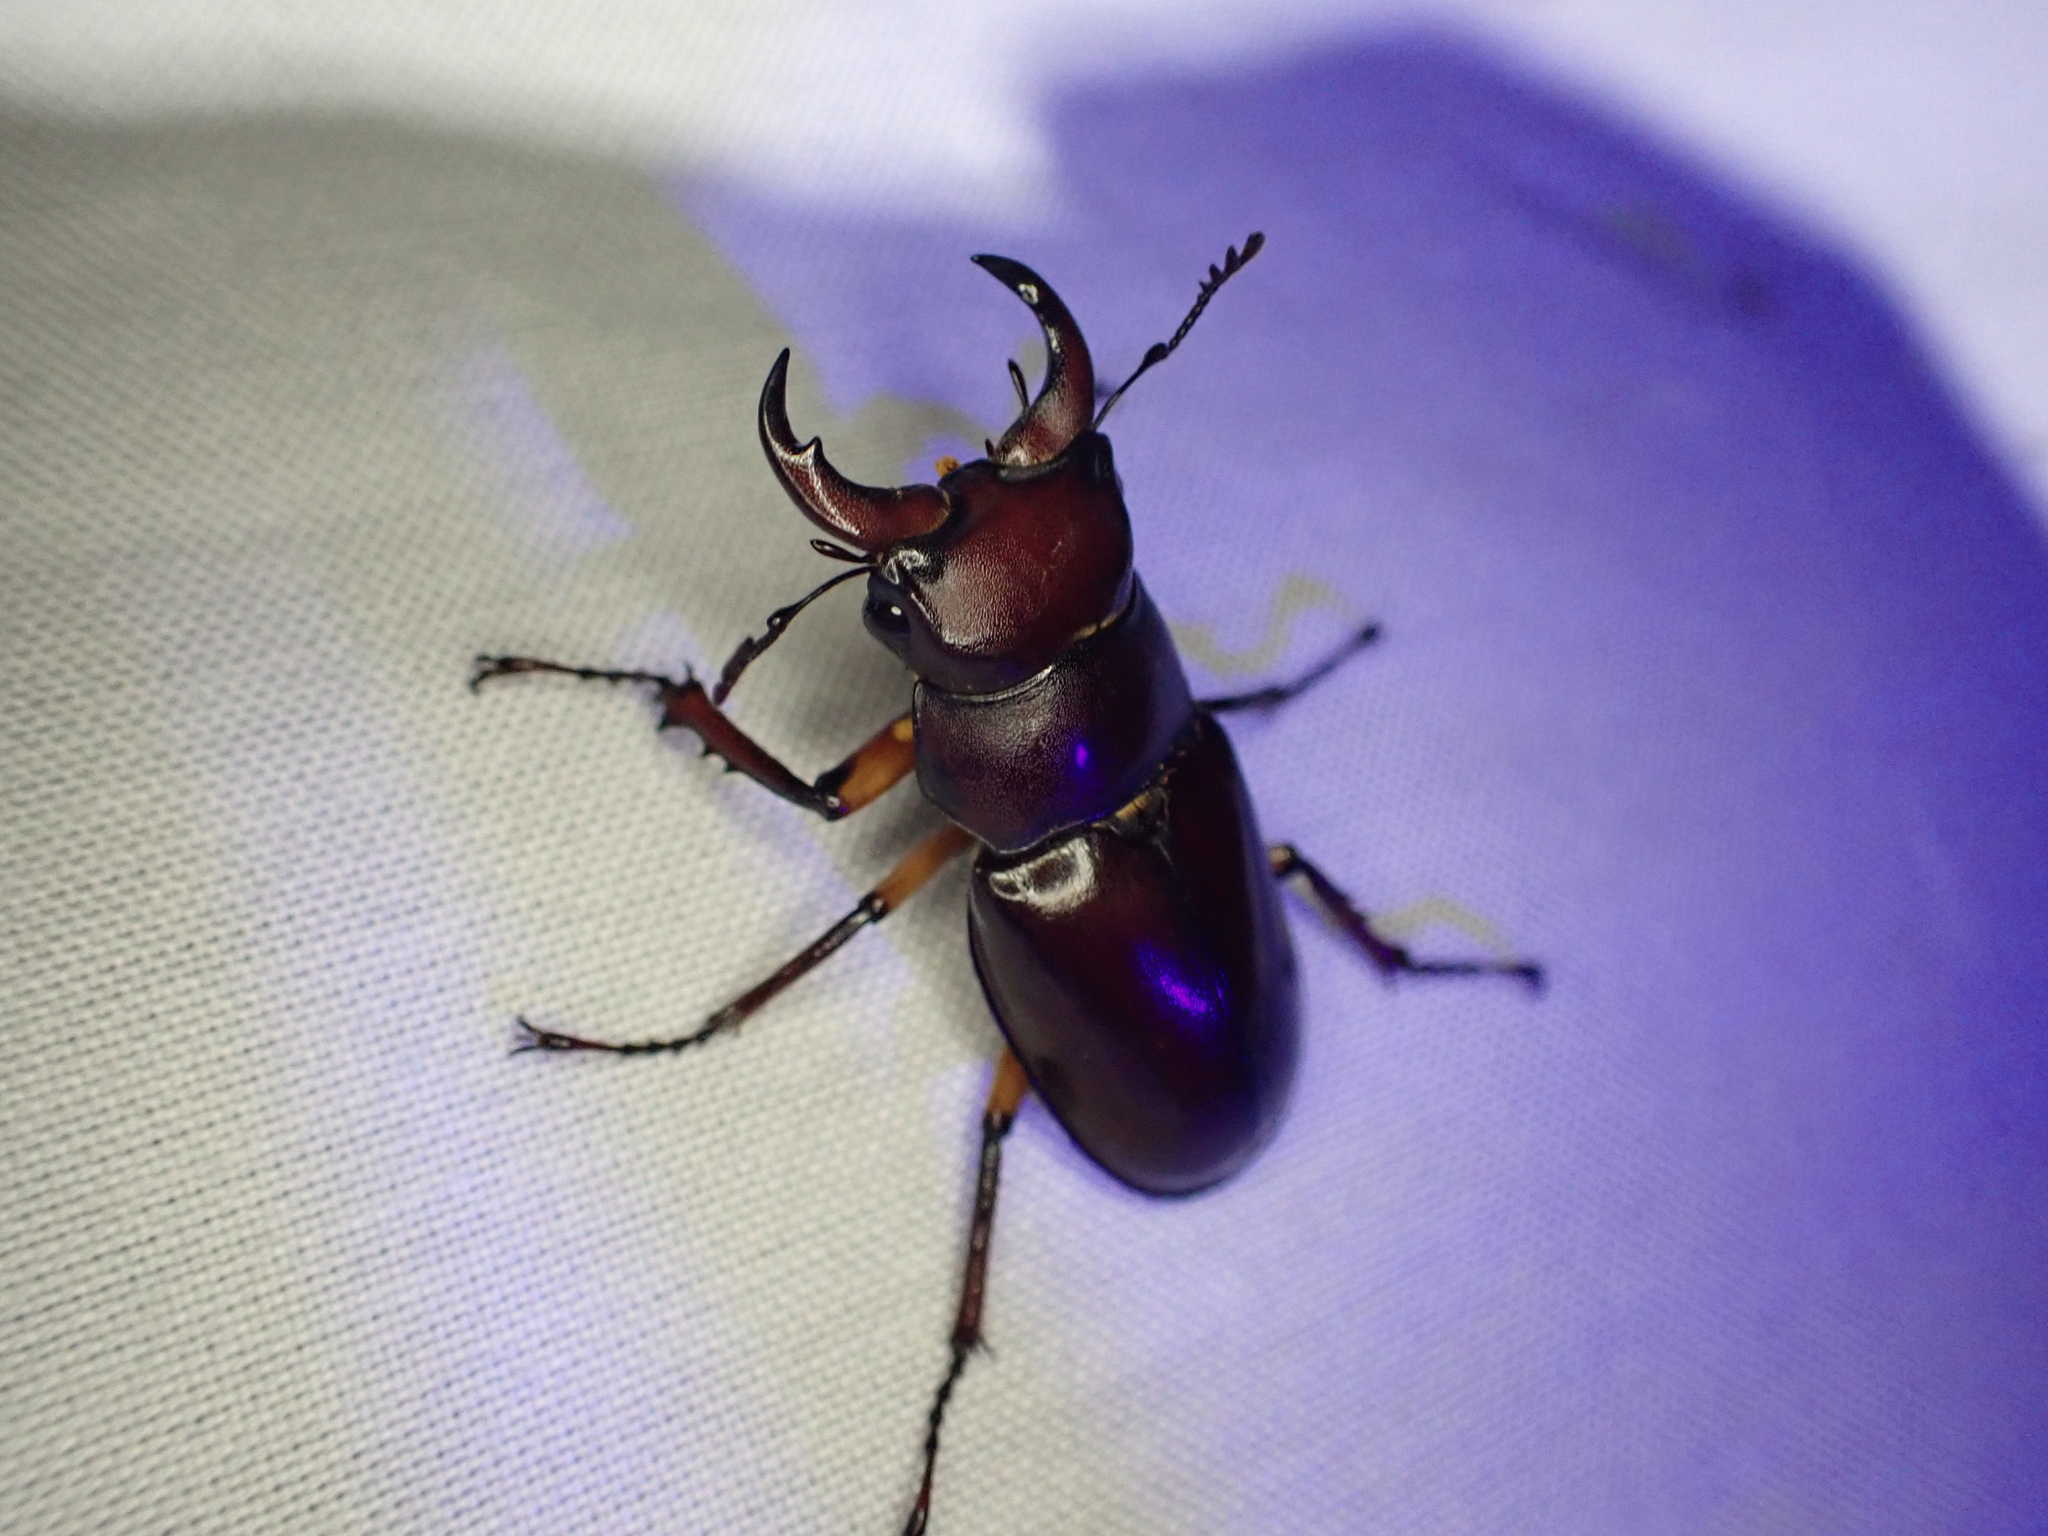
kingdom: Animalia
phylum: Arthropoda
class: Insecta
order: Coleoptera
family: Lucanidae
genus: Lucanus
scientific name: Lucanus capreolus
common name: Stag beetle
